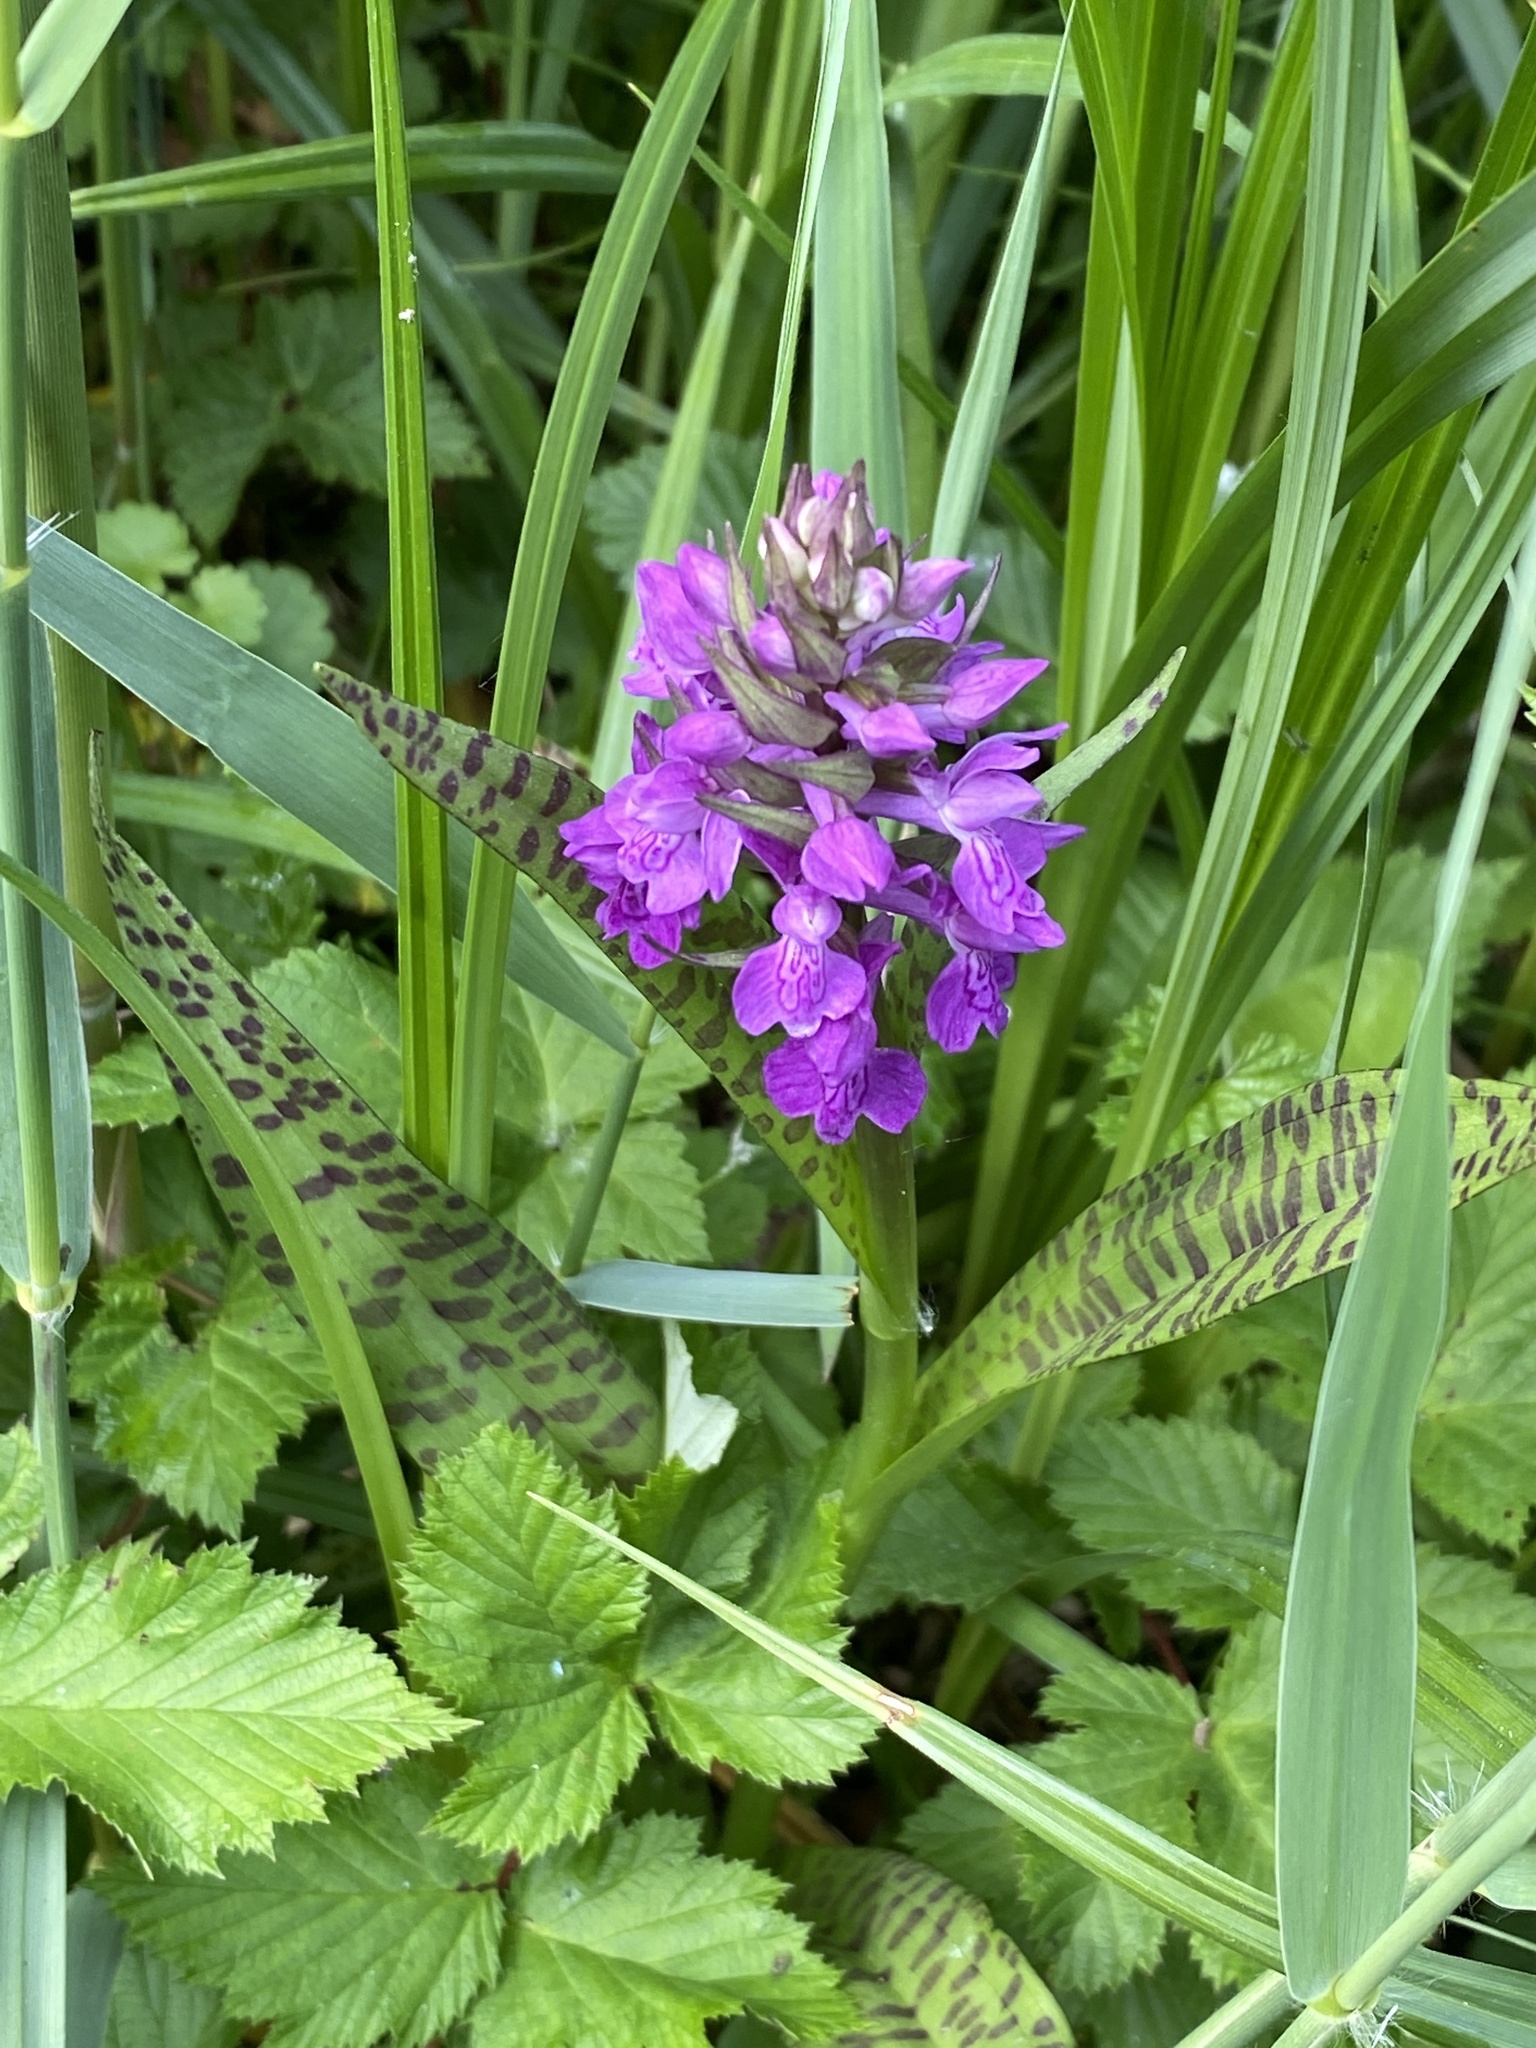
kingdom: Plantae
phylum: Tracheophyta
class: Liliopsida
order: Asparagales
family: Orchidaceae
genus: Dactylorhiza
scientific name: Dactylorhiza majalis
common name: Marsh orchid
